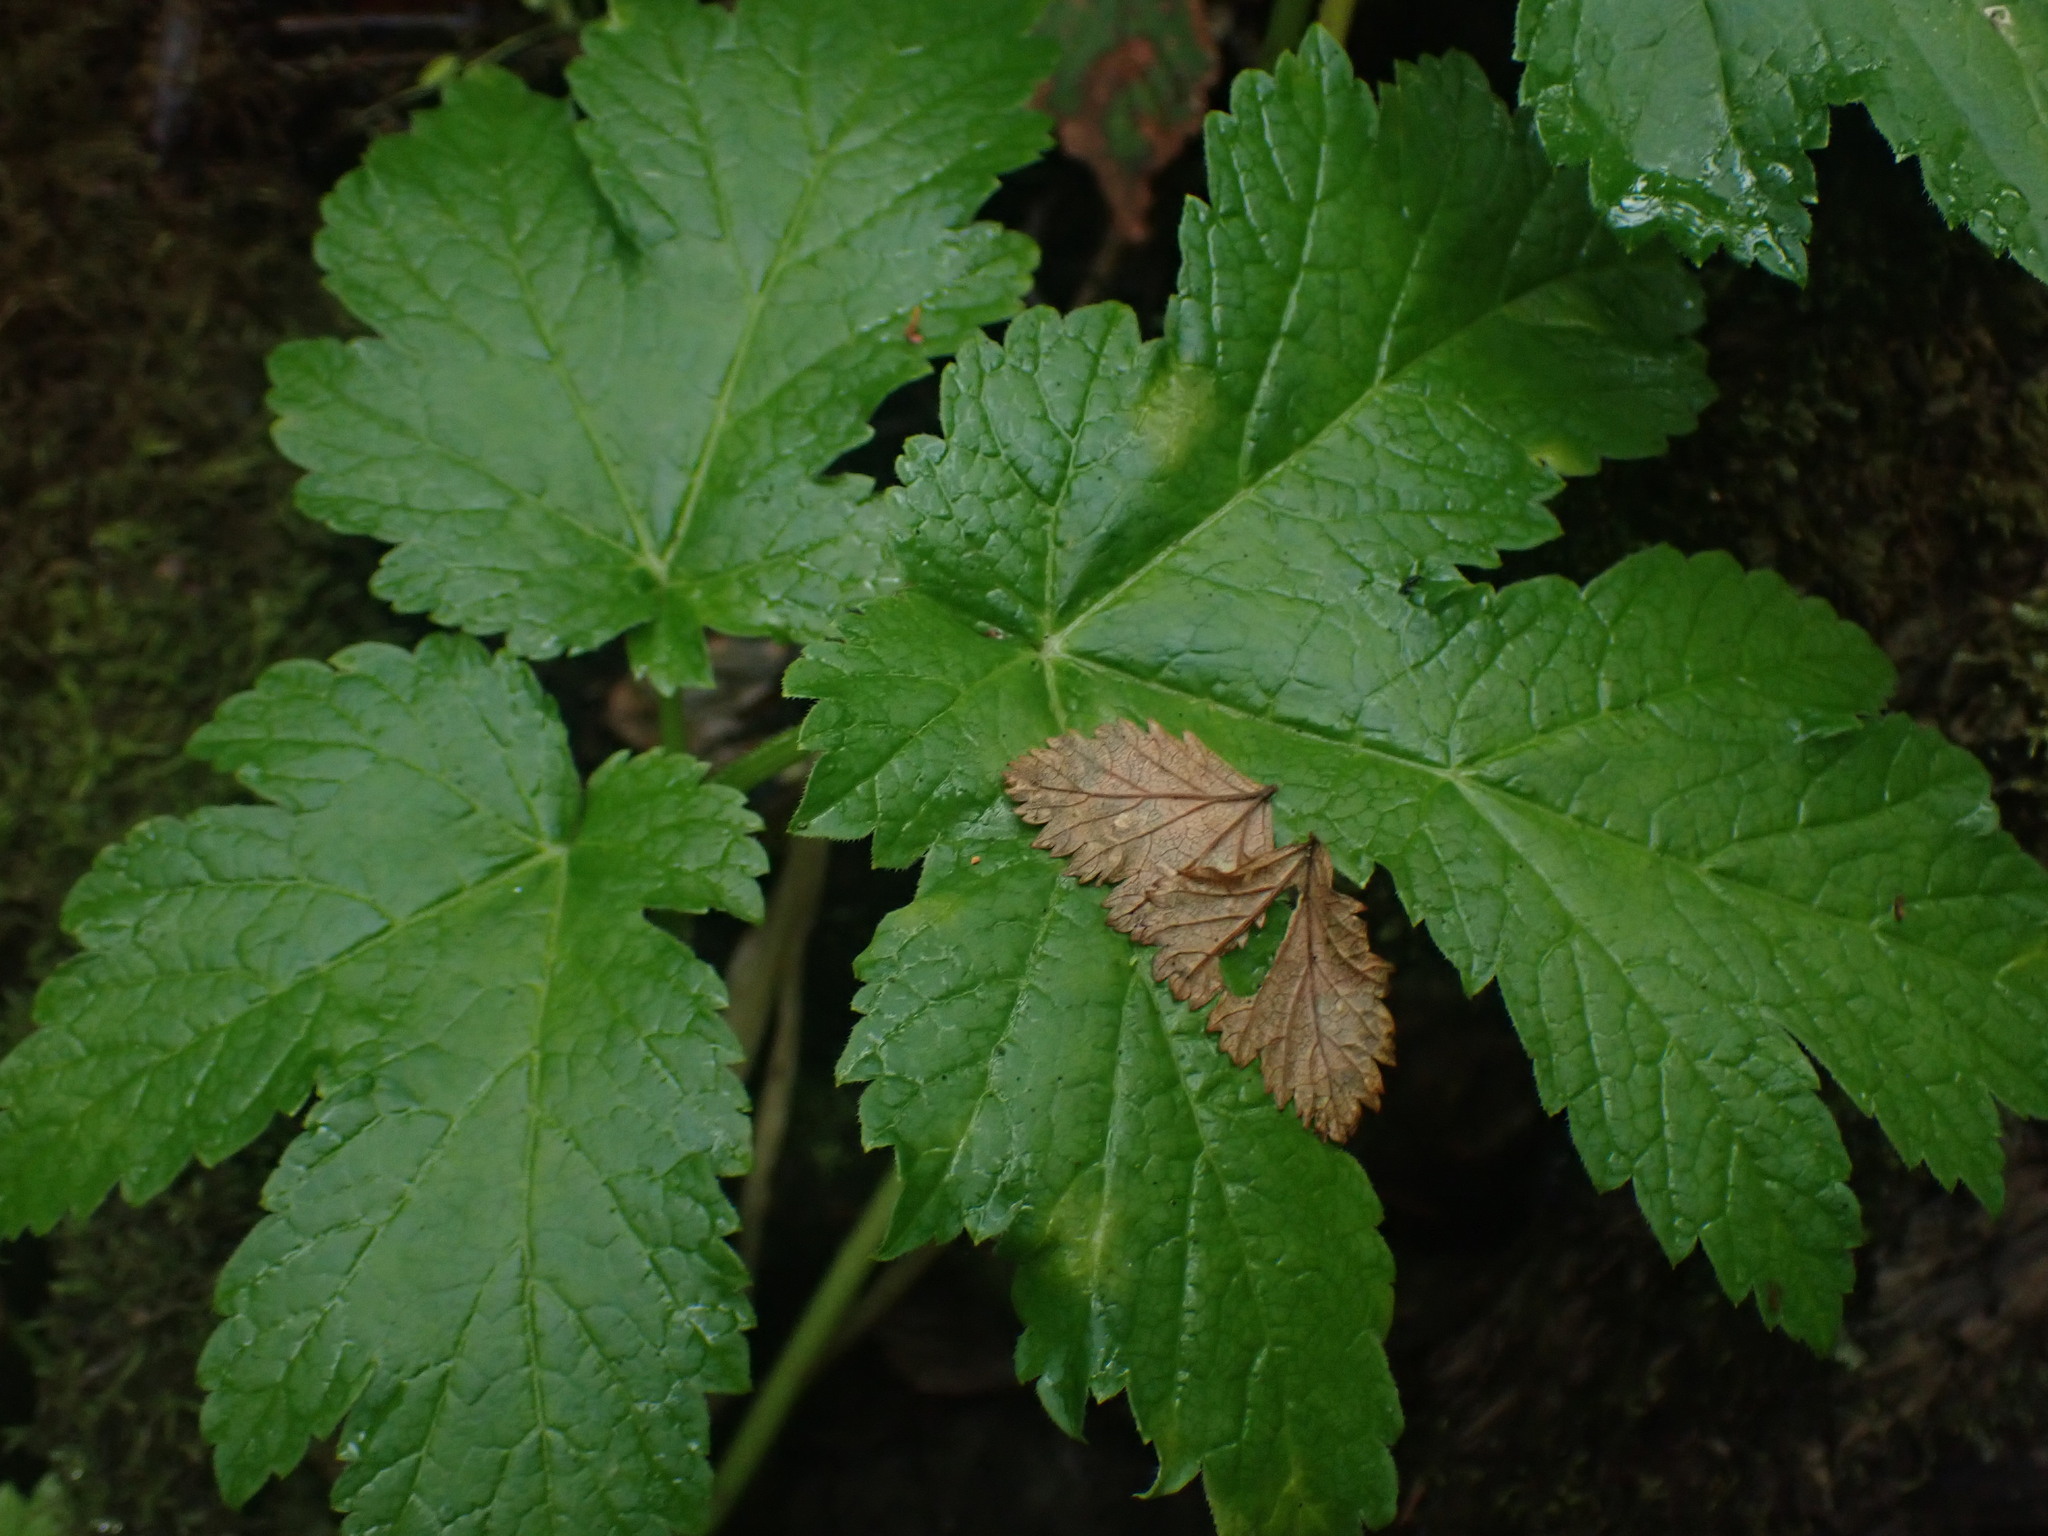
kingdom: Plantae
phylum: Tracheophyta
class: Magnoliopsida
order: Apiales
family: Apiaceae
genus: Heracleum
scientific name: Heracleum maximum
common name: American cow parsnip
